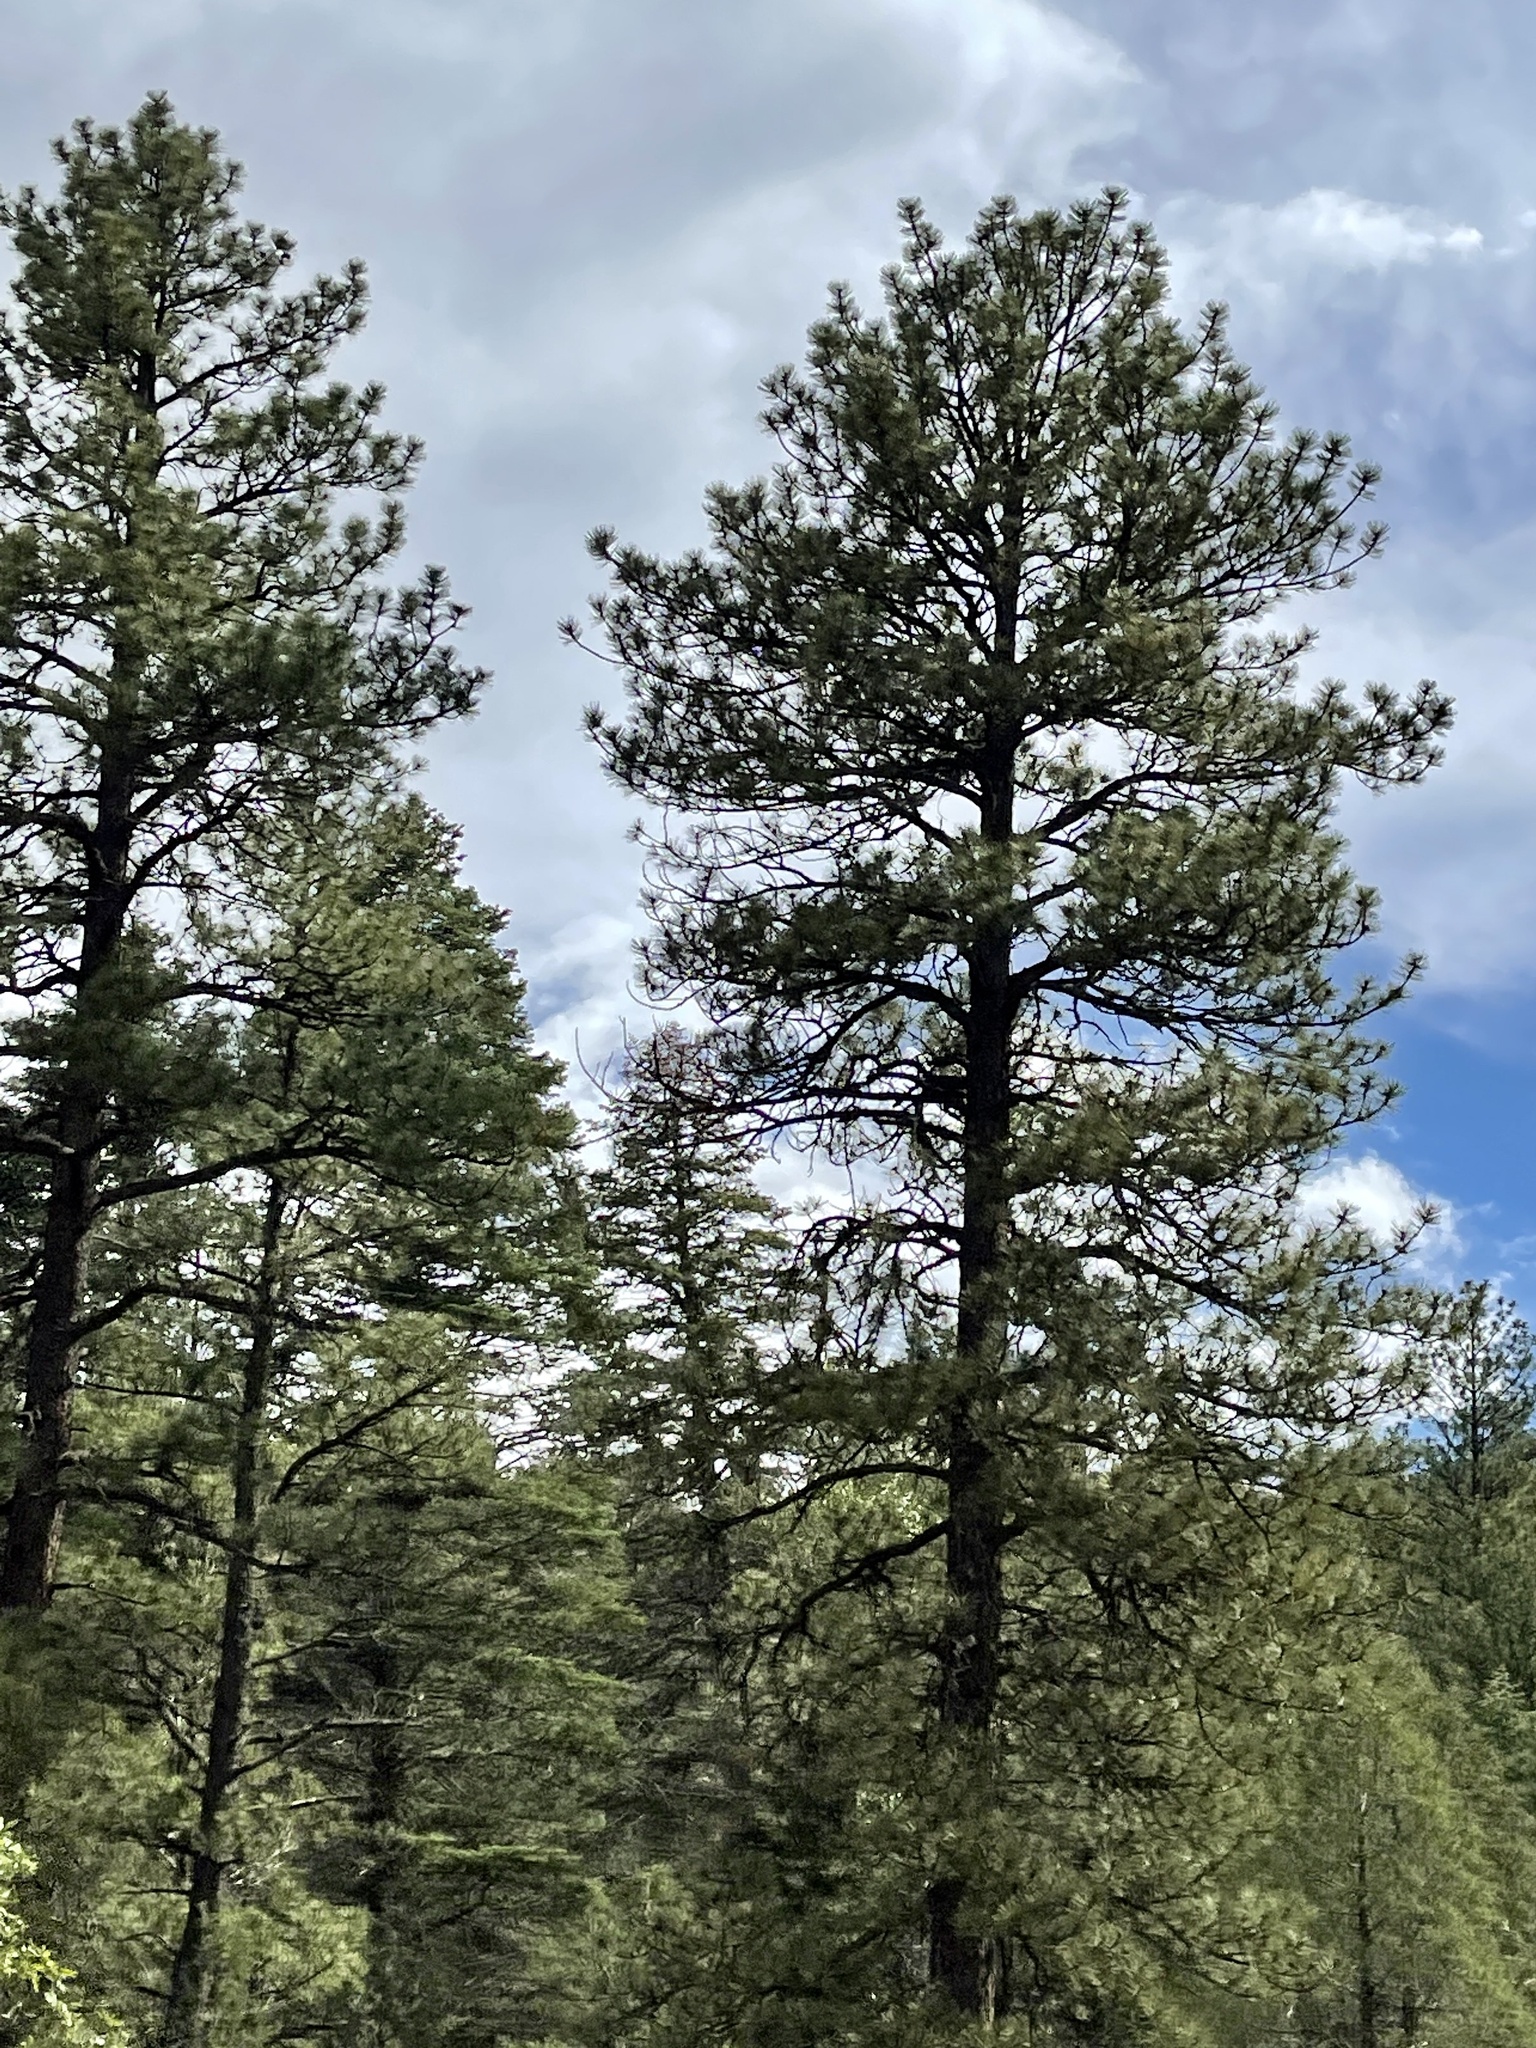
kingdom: Plantae
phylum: Tracheophyta
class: Pinopsida
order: Pinales
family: Pinaceae
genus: Pinus
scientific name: Pinus ponderosa
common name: Western yellow-pine
